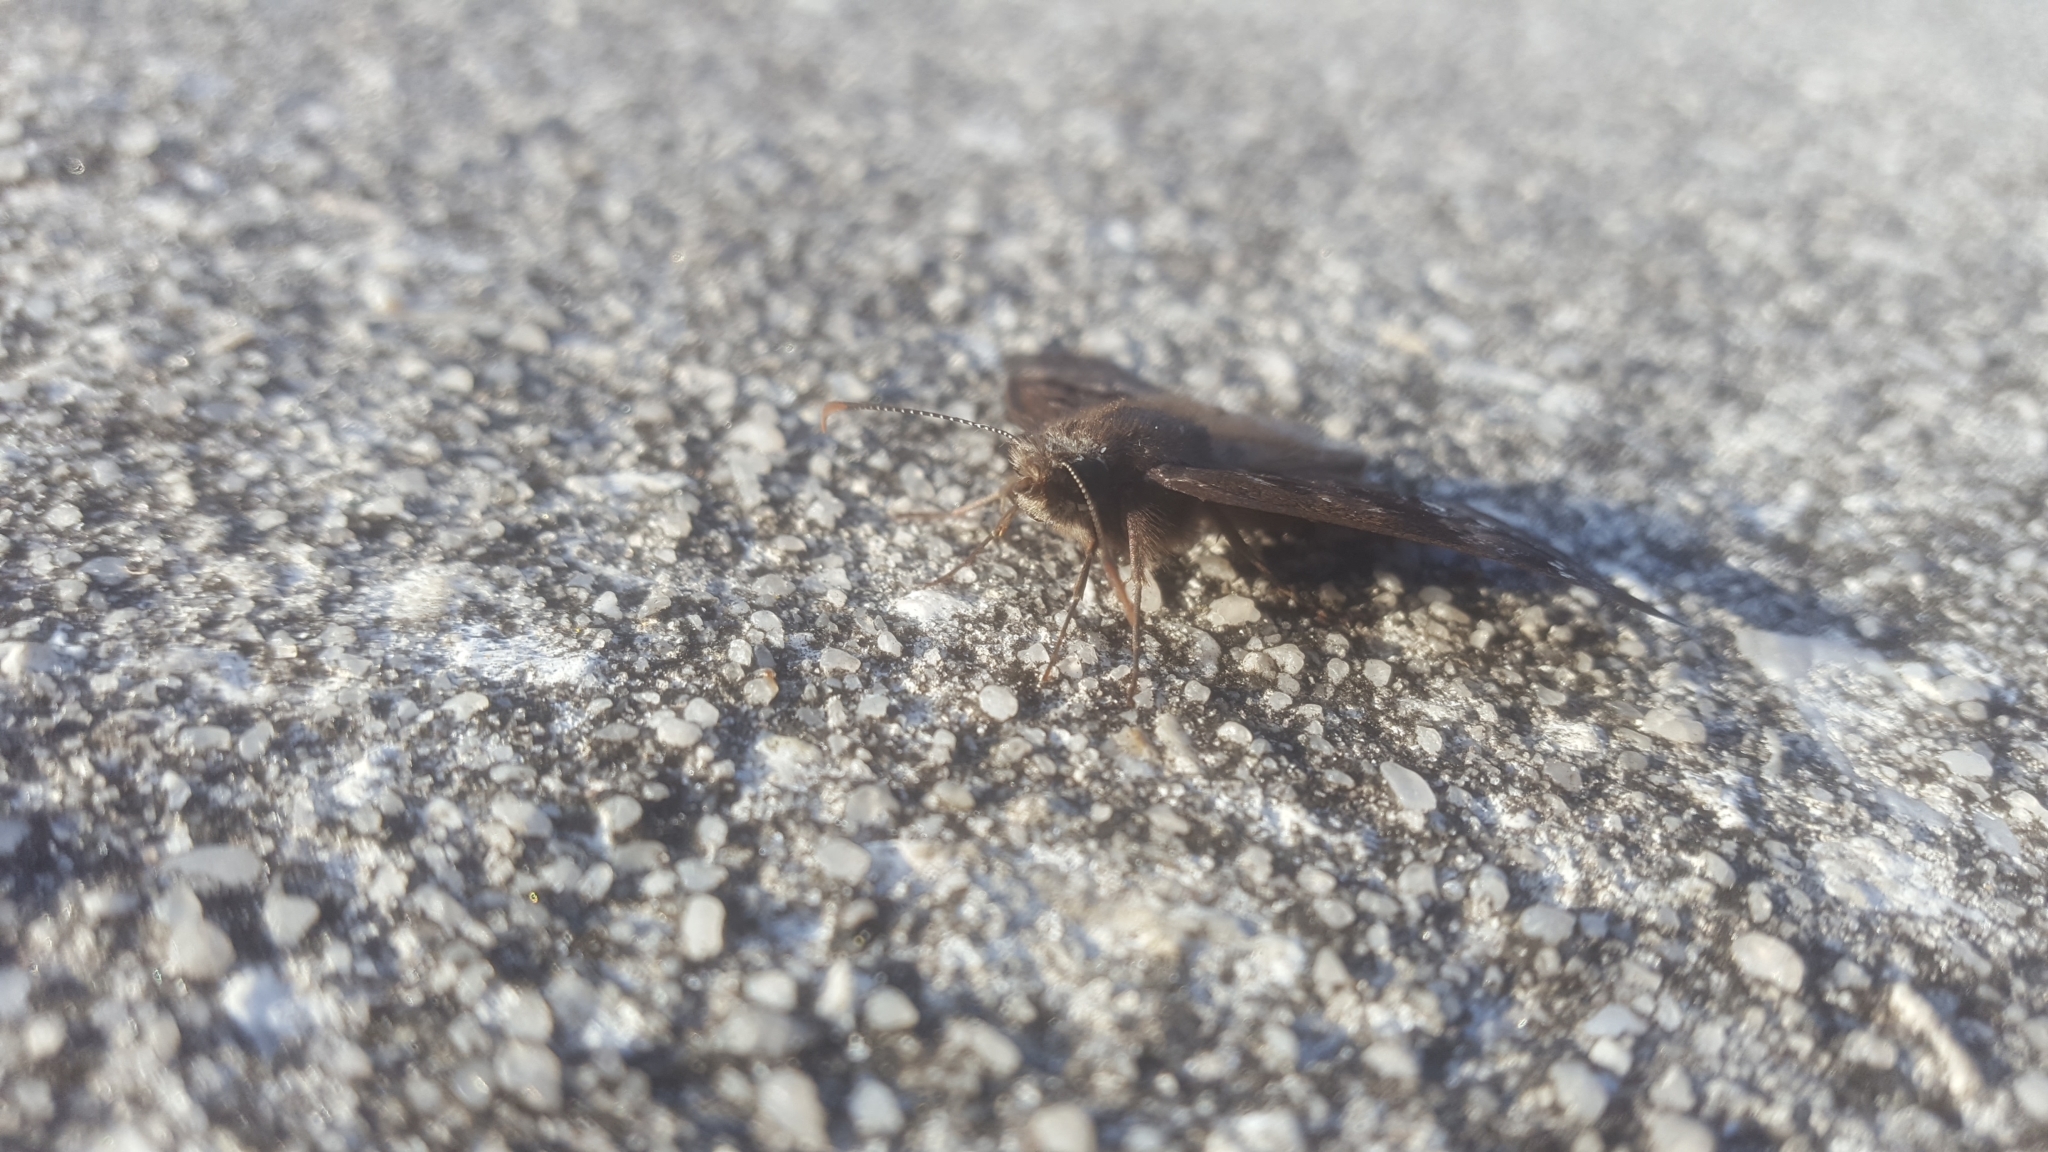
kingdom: Animalia
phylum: Arthropoda
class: Insecta
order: Lepidoptera
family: Hesperiidae
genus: Erynnis
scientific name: Erynnis horatius
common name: Horace's duskywing
